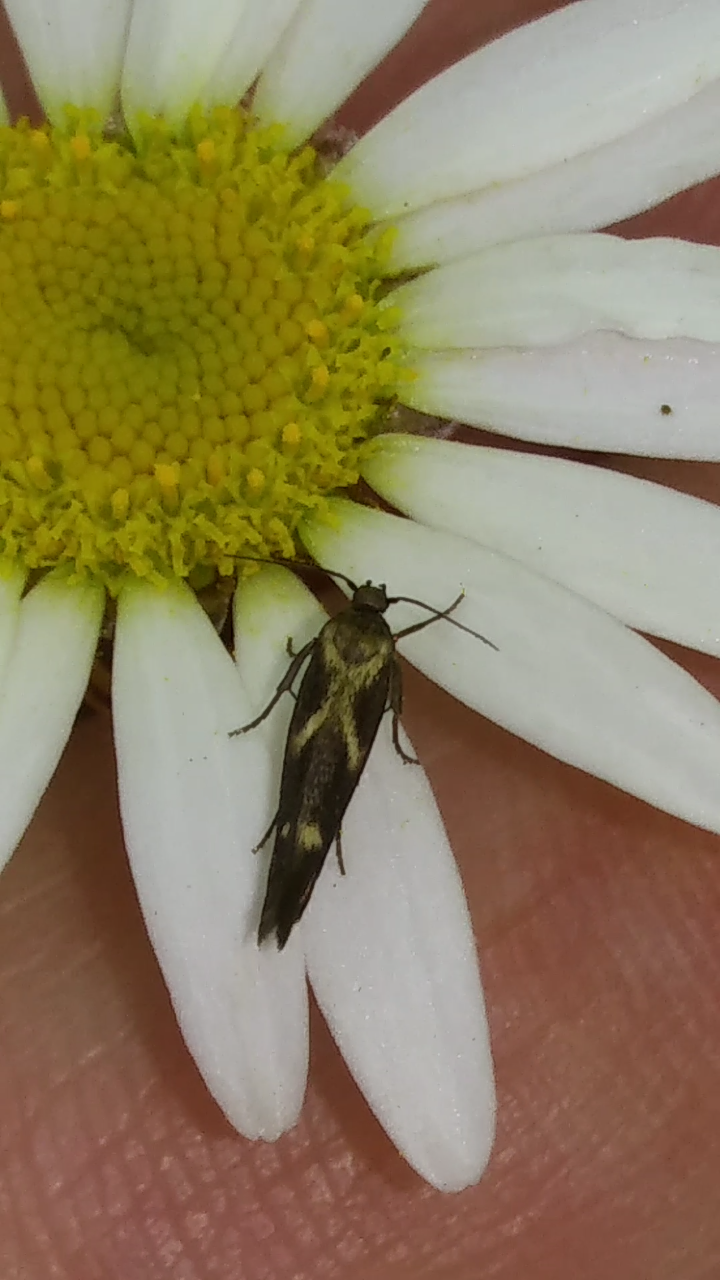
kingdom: Animalia
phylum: Arthropoda
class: Insecta
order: Lepidoptera
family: Scythrididae
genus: Landryia
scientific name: Landryia impositella
